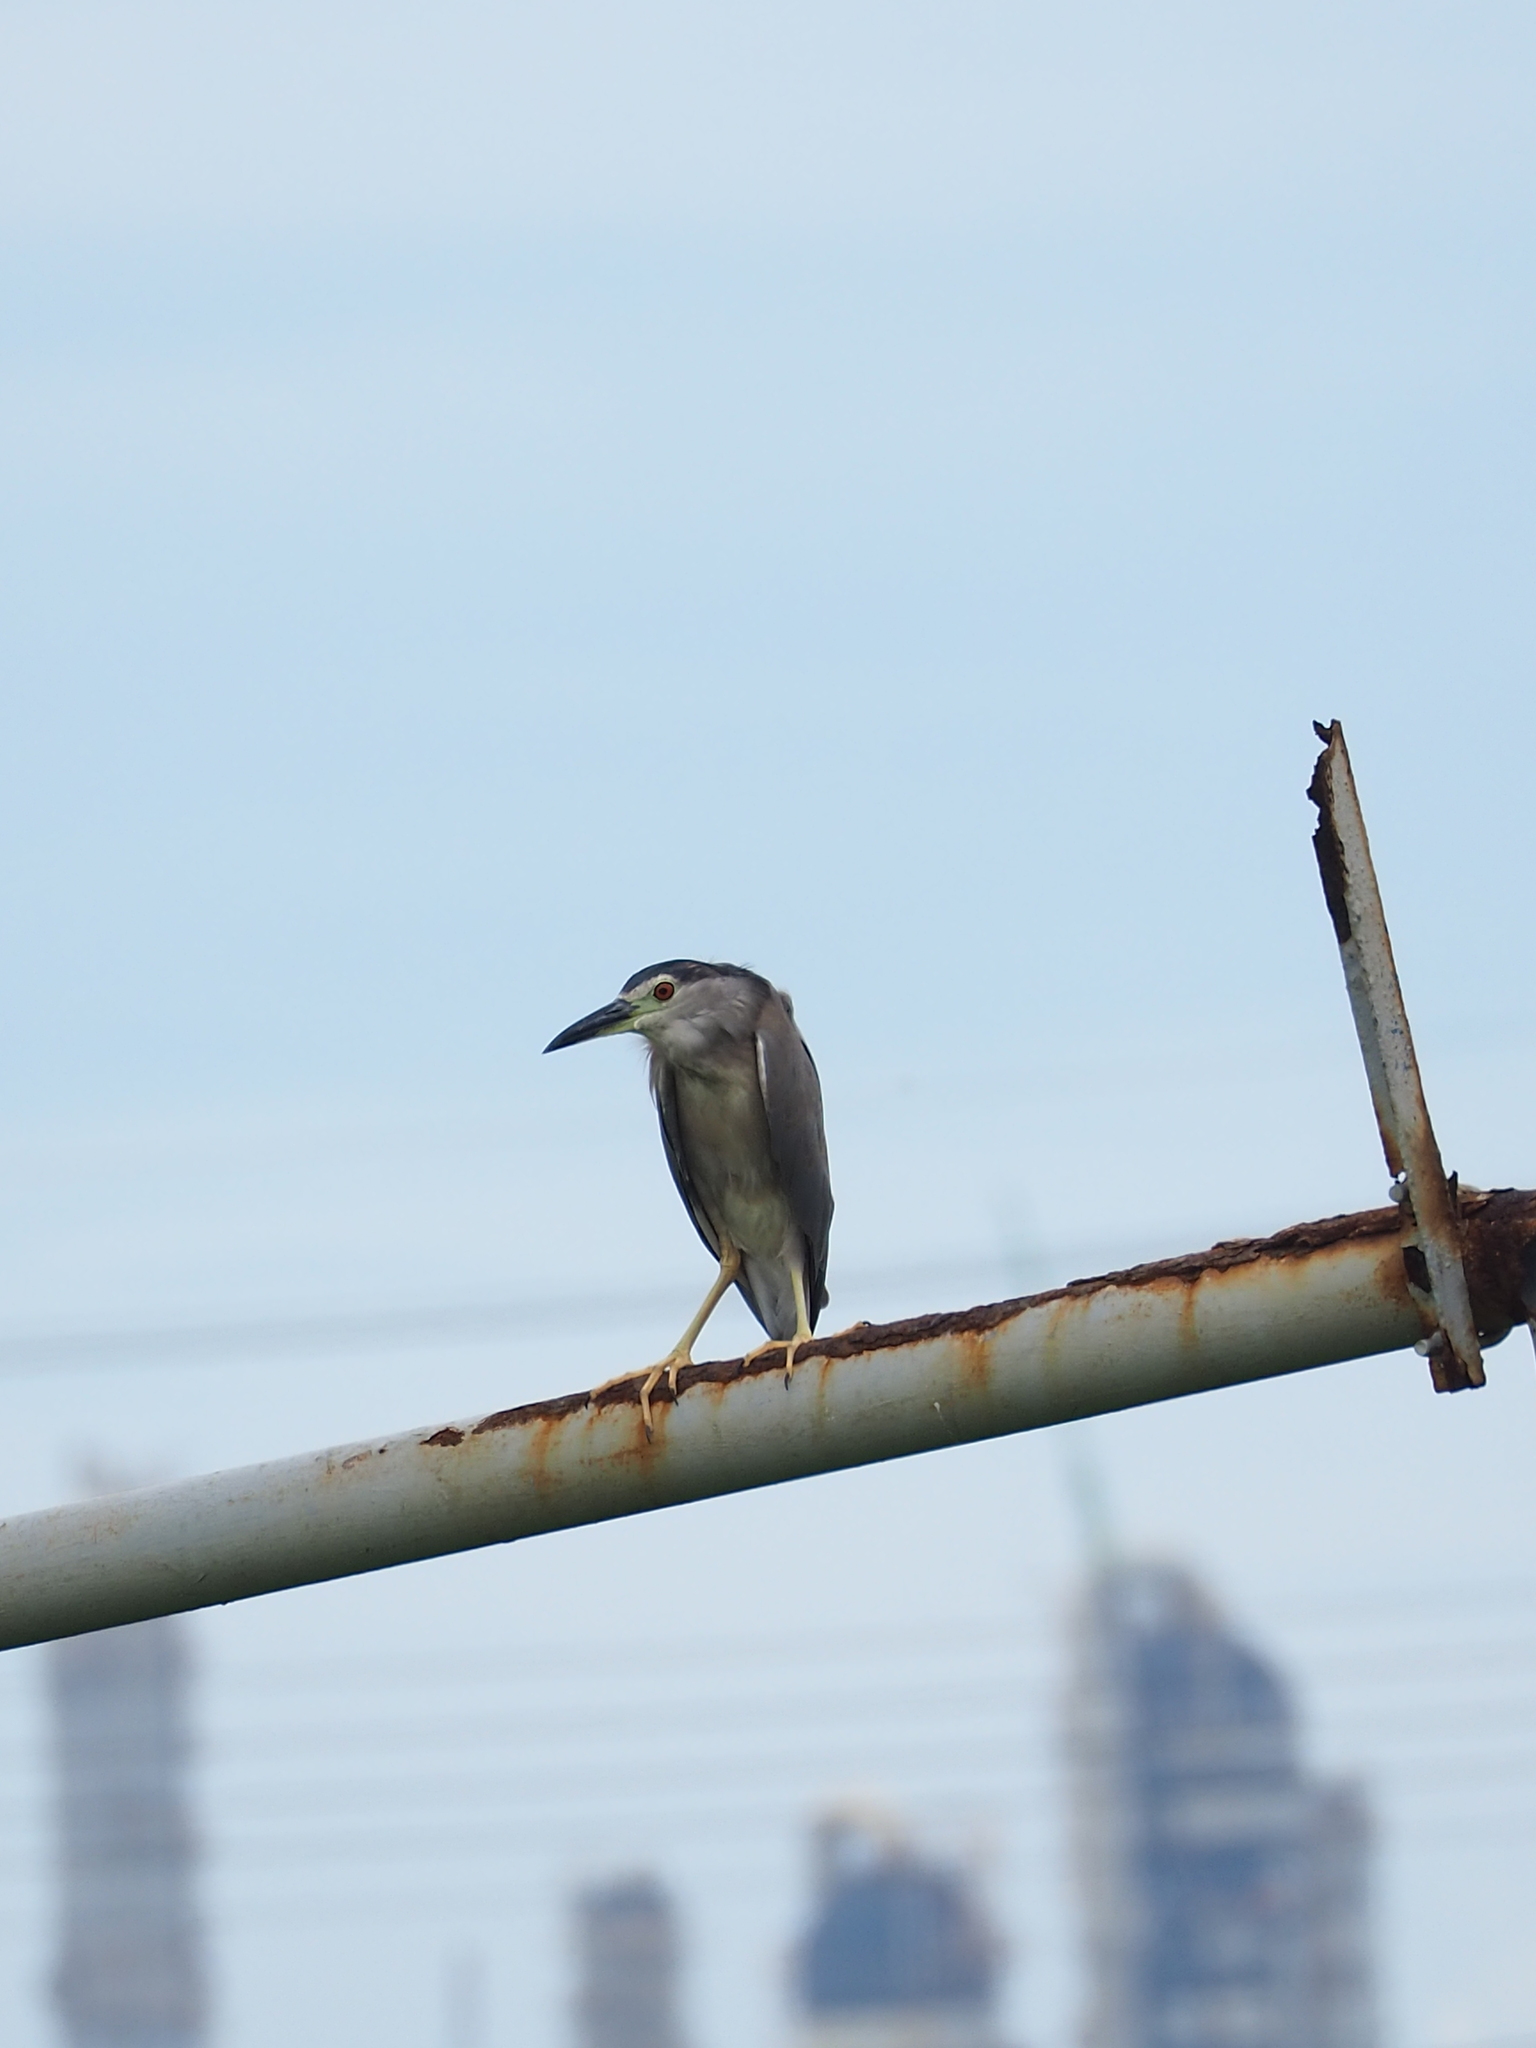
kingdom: Animalia
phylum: Chordata
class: Aves
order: Pelecaniformes
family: Ardeidae
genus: Nycticorax
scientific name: Nycticorax nycticorax
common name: Black-crowned night heron
